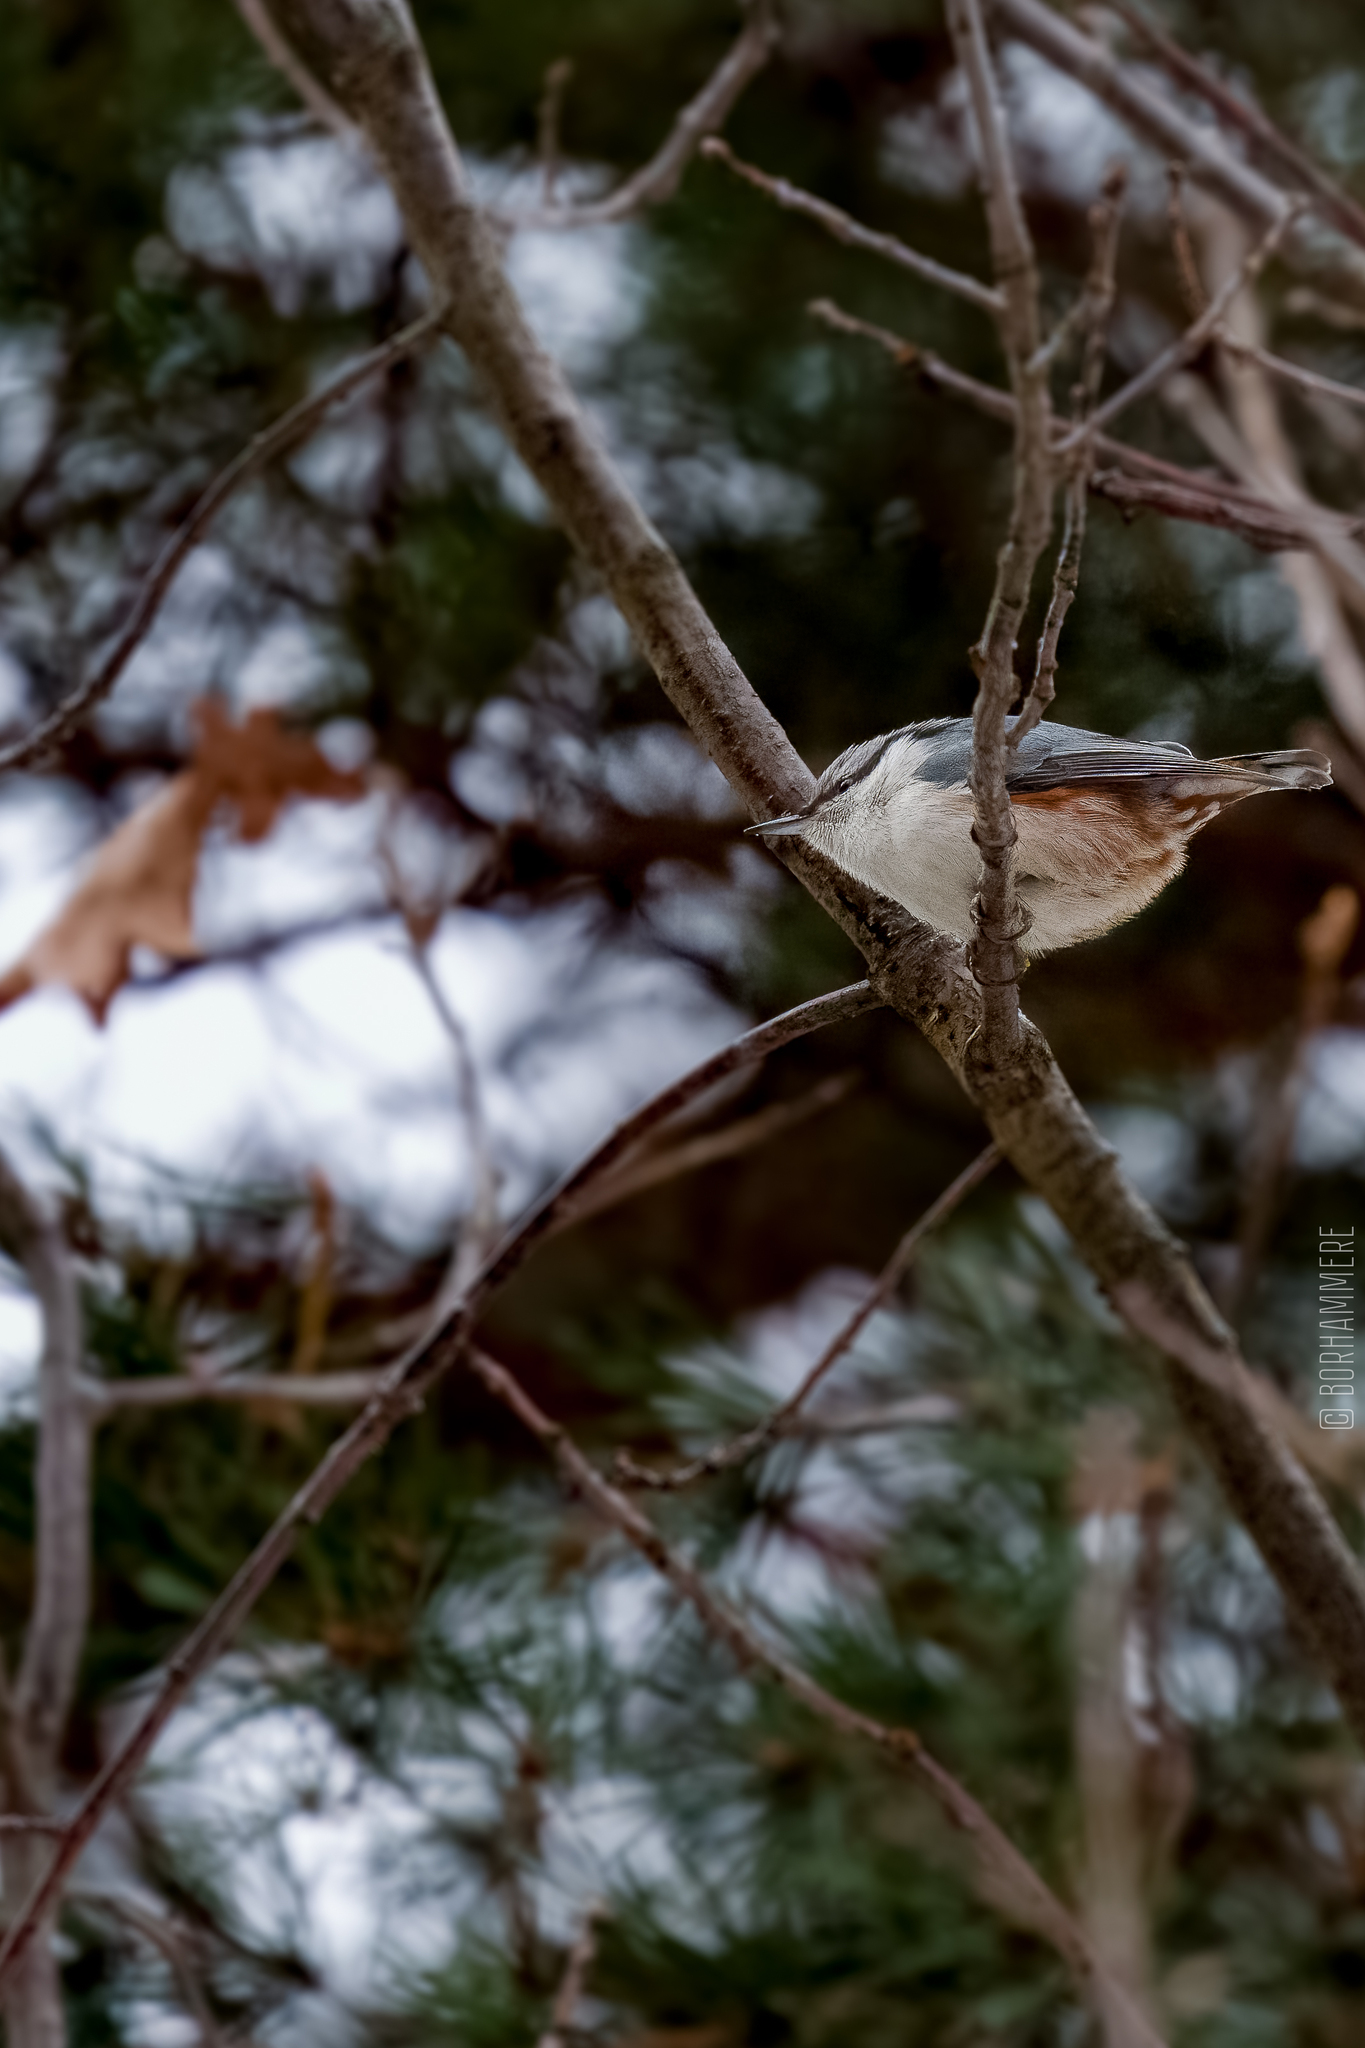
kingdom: Animalia
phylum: Chordata
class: Aves
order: Passeriformes
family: Sittidae
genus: Sitta
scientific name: Sitta europaea
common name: Eurasian nuthatch
